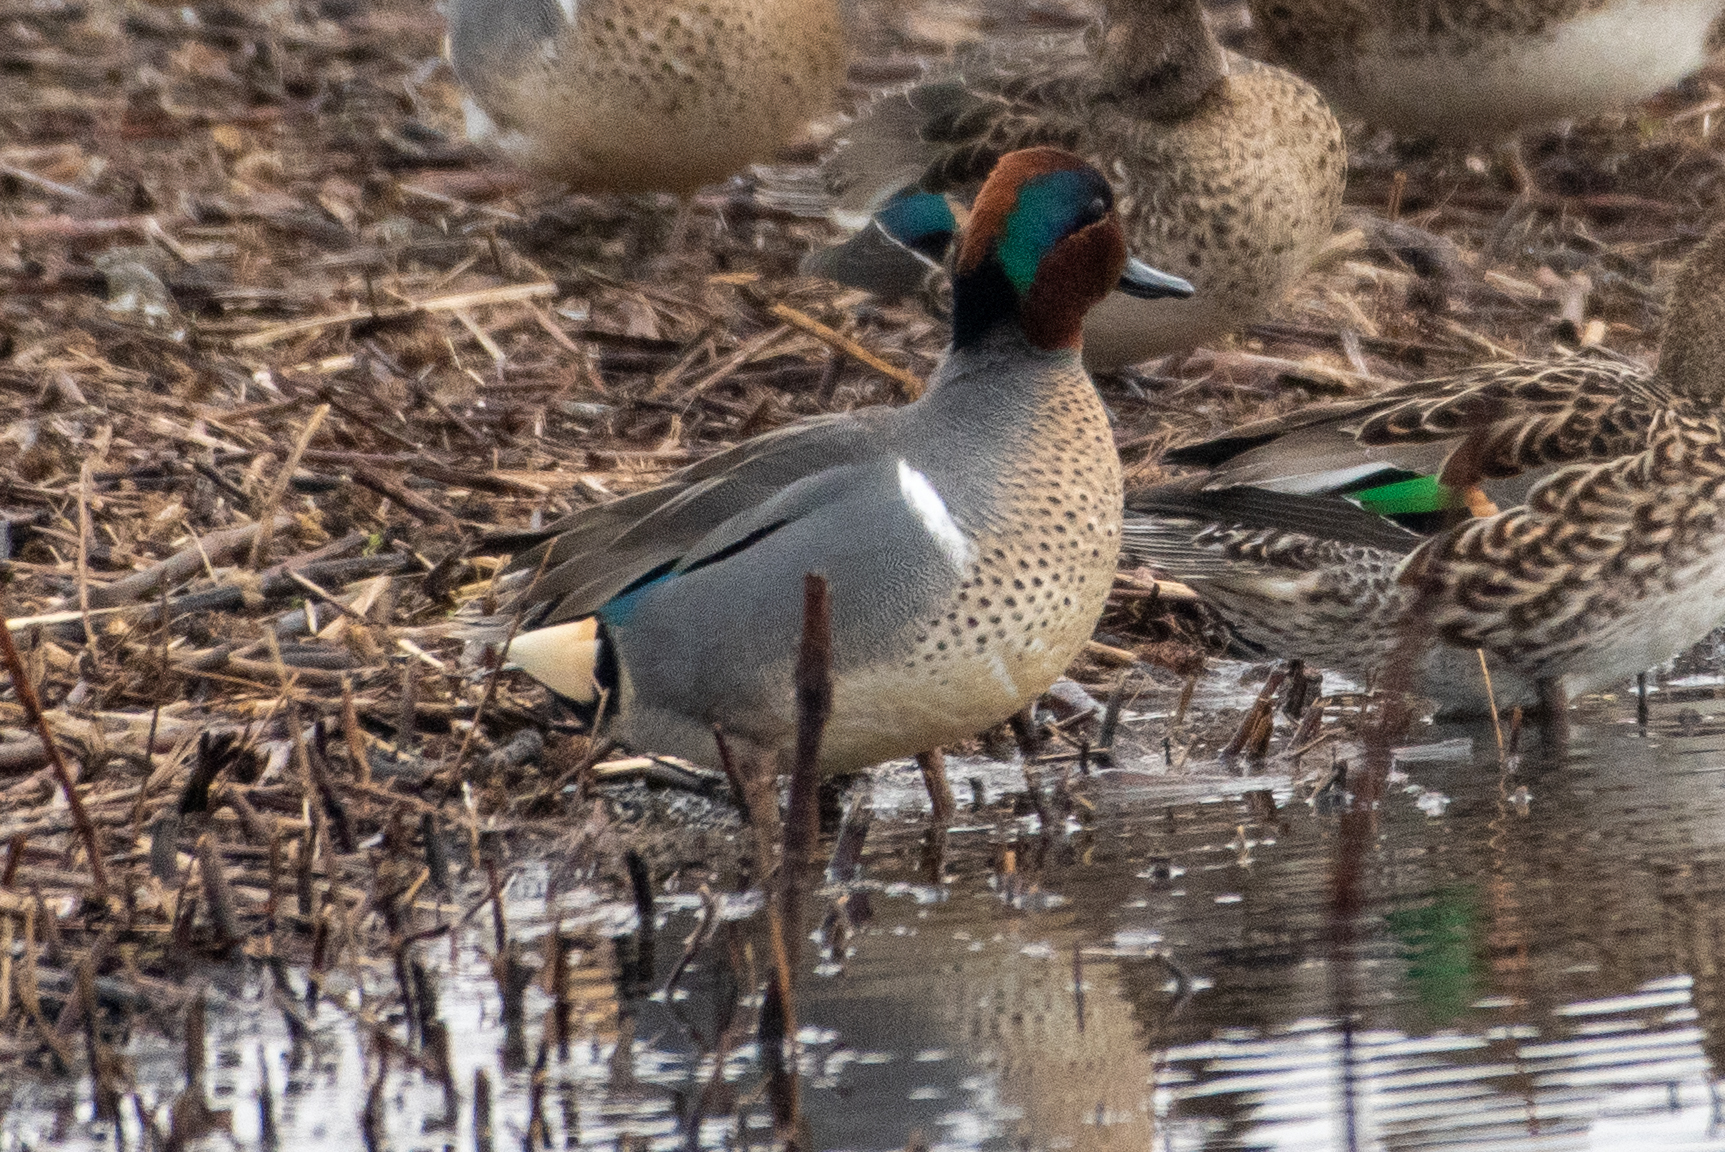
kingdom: Animalia
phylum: Chordata
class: Aves
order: Anseriformes
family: Anatidae
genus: Anas
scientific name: Anas crecca
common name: Eurasian teal
